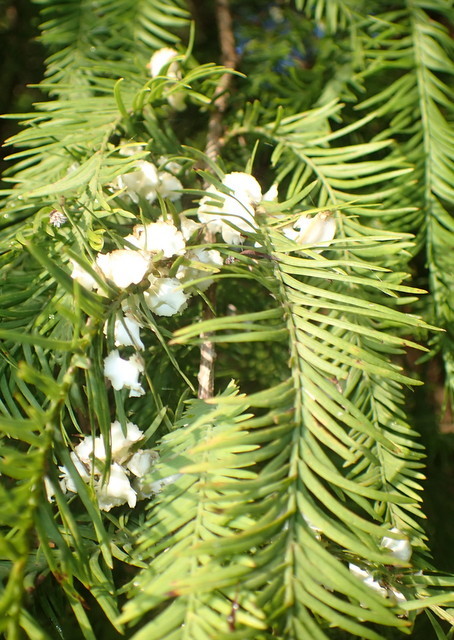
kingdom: Animalia
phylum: Arthropoda
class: Insecta
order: Diptera
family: Cecidomyiidae
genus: Taxodiomyia
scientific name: Taxodiomyia cupressiananassa
